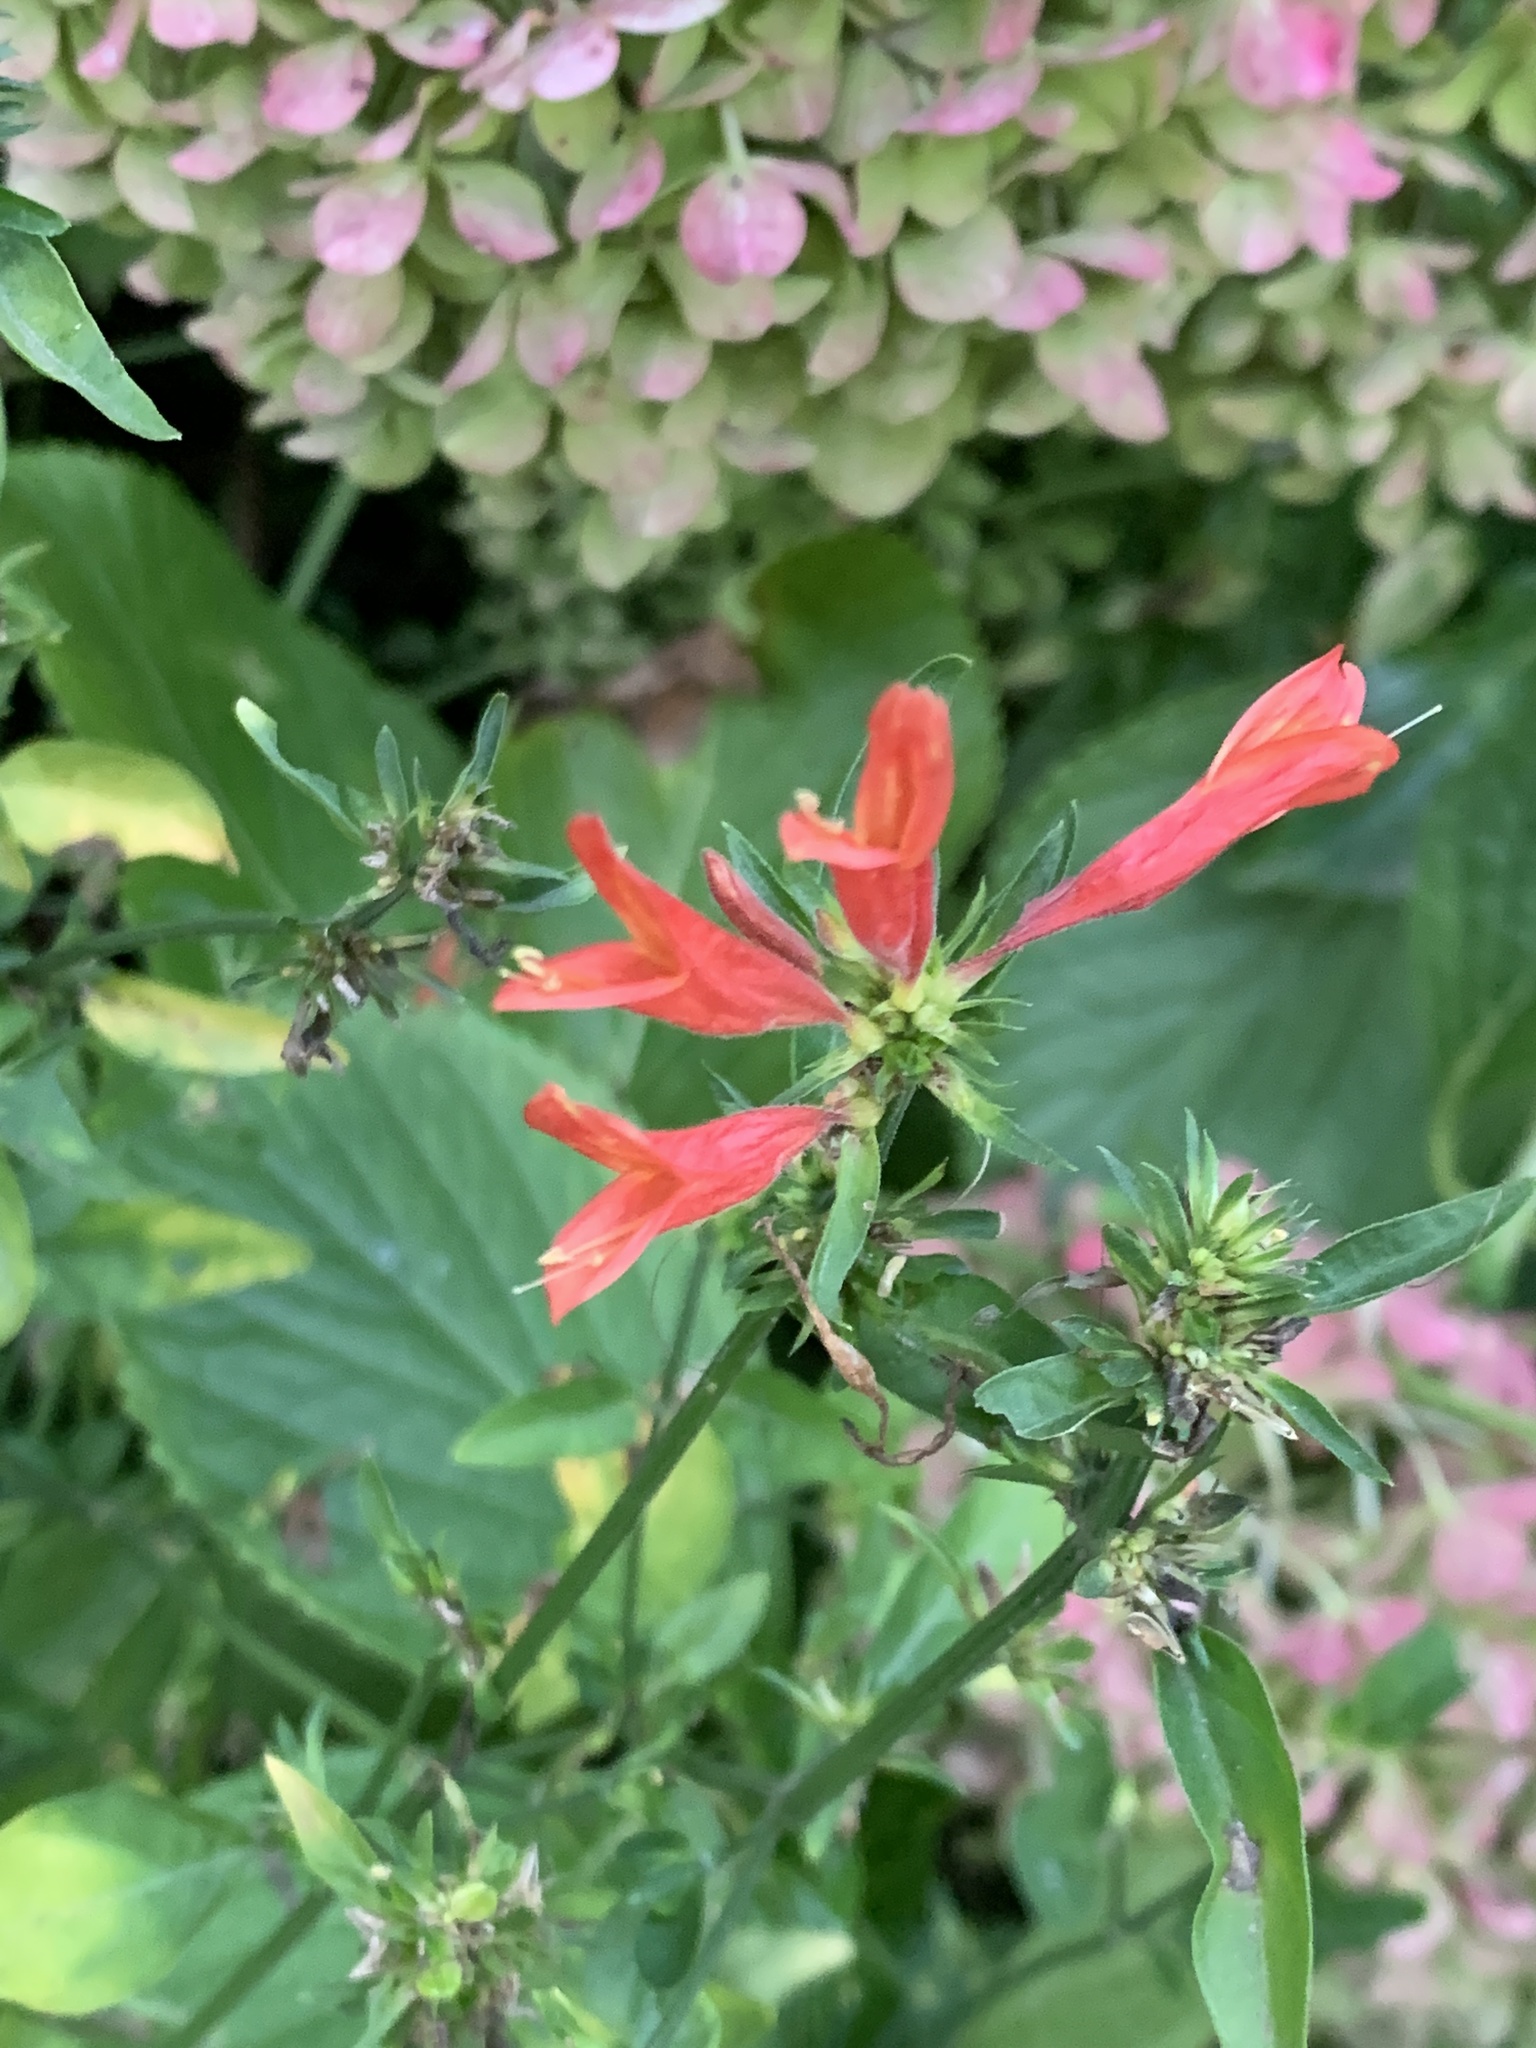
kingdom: Plantae
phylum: Tracheophyta
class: Magnoliopsida
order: Lamiales
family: Acanthaceae
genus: Dicliptera
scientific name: Dicliptera squarrosa
